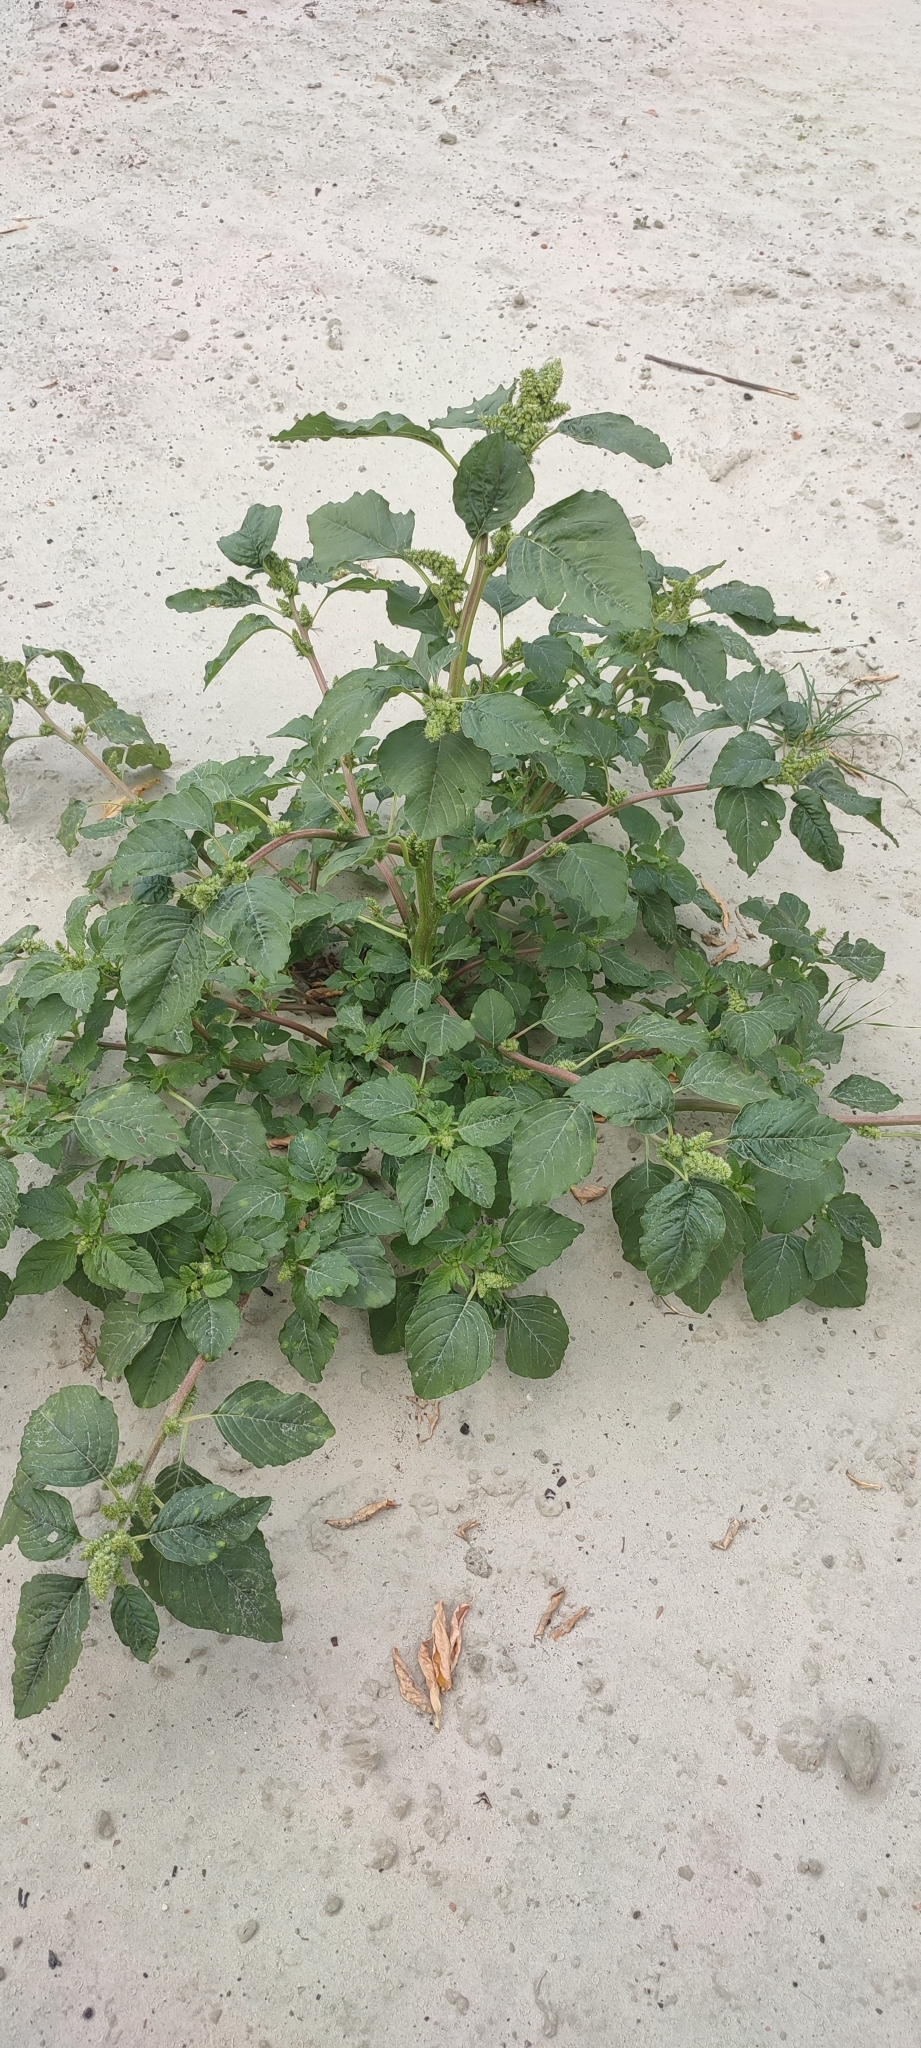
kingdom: Plantae
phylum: Tracheophyta
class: Magnoliopsida
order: Caryophyllales
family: Amaranthaceae
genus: Amaranthus
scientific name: Amaranthus retroflexus
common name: Redroot amaranth
